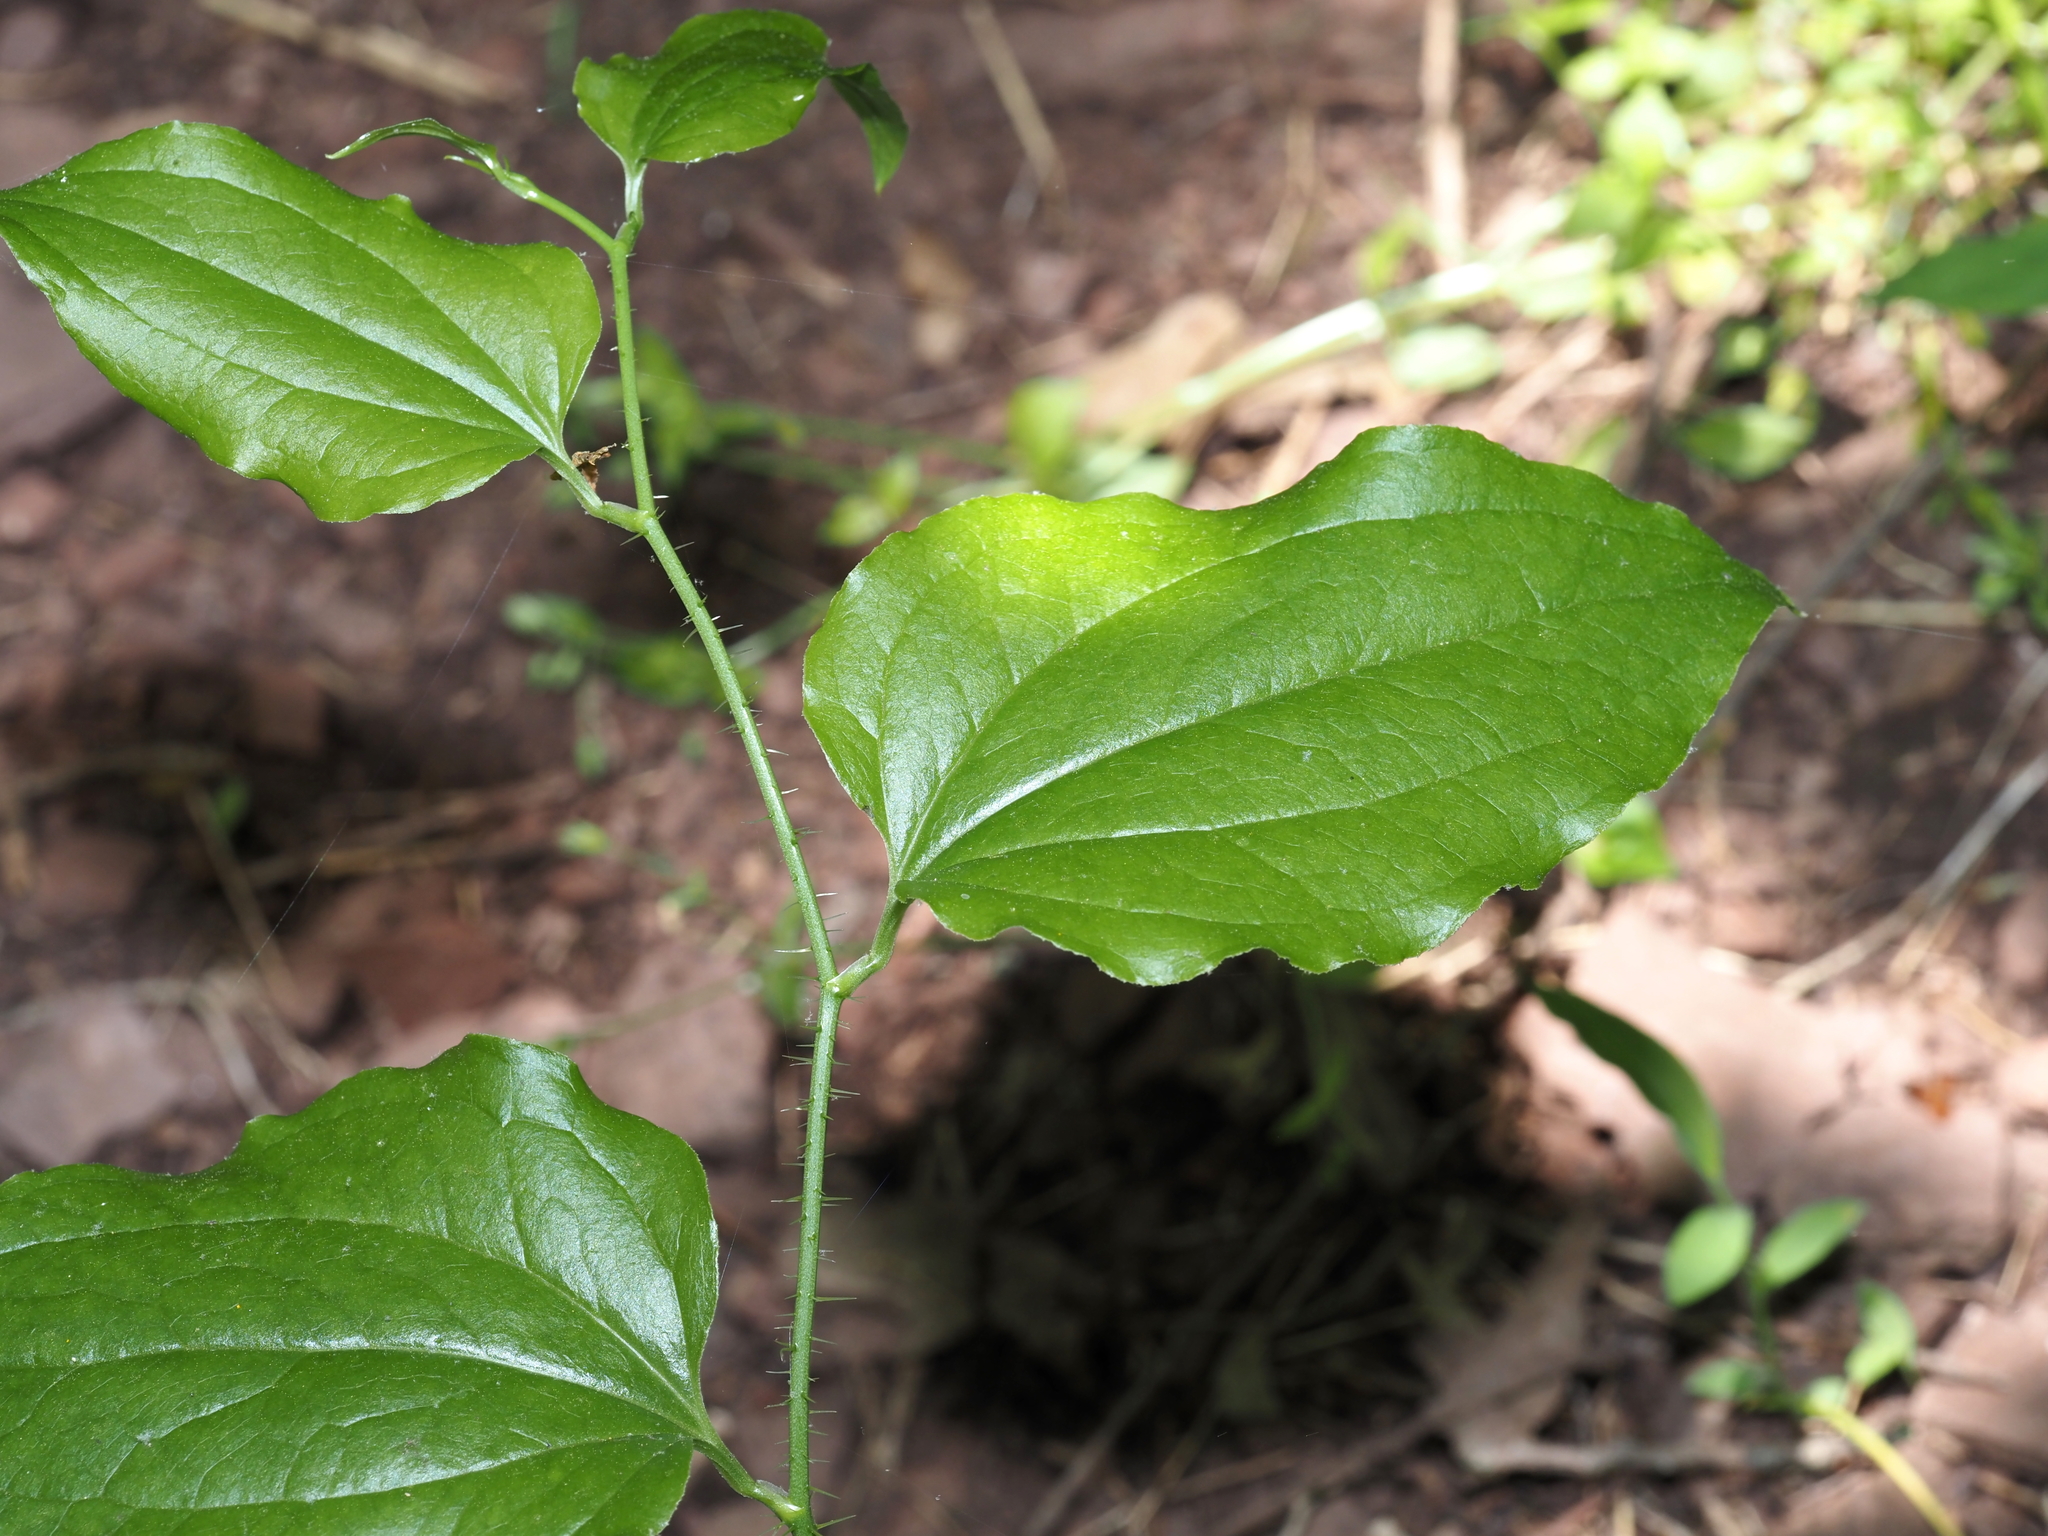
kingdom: Plantae
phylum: Tracheophyta
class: Liliopsida
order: Liliales
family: Smilacaceae
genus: Smilax
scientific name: Smilax tamnoides
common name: Hellfetter
